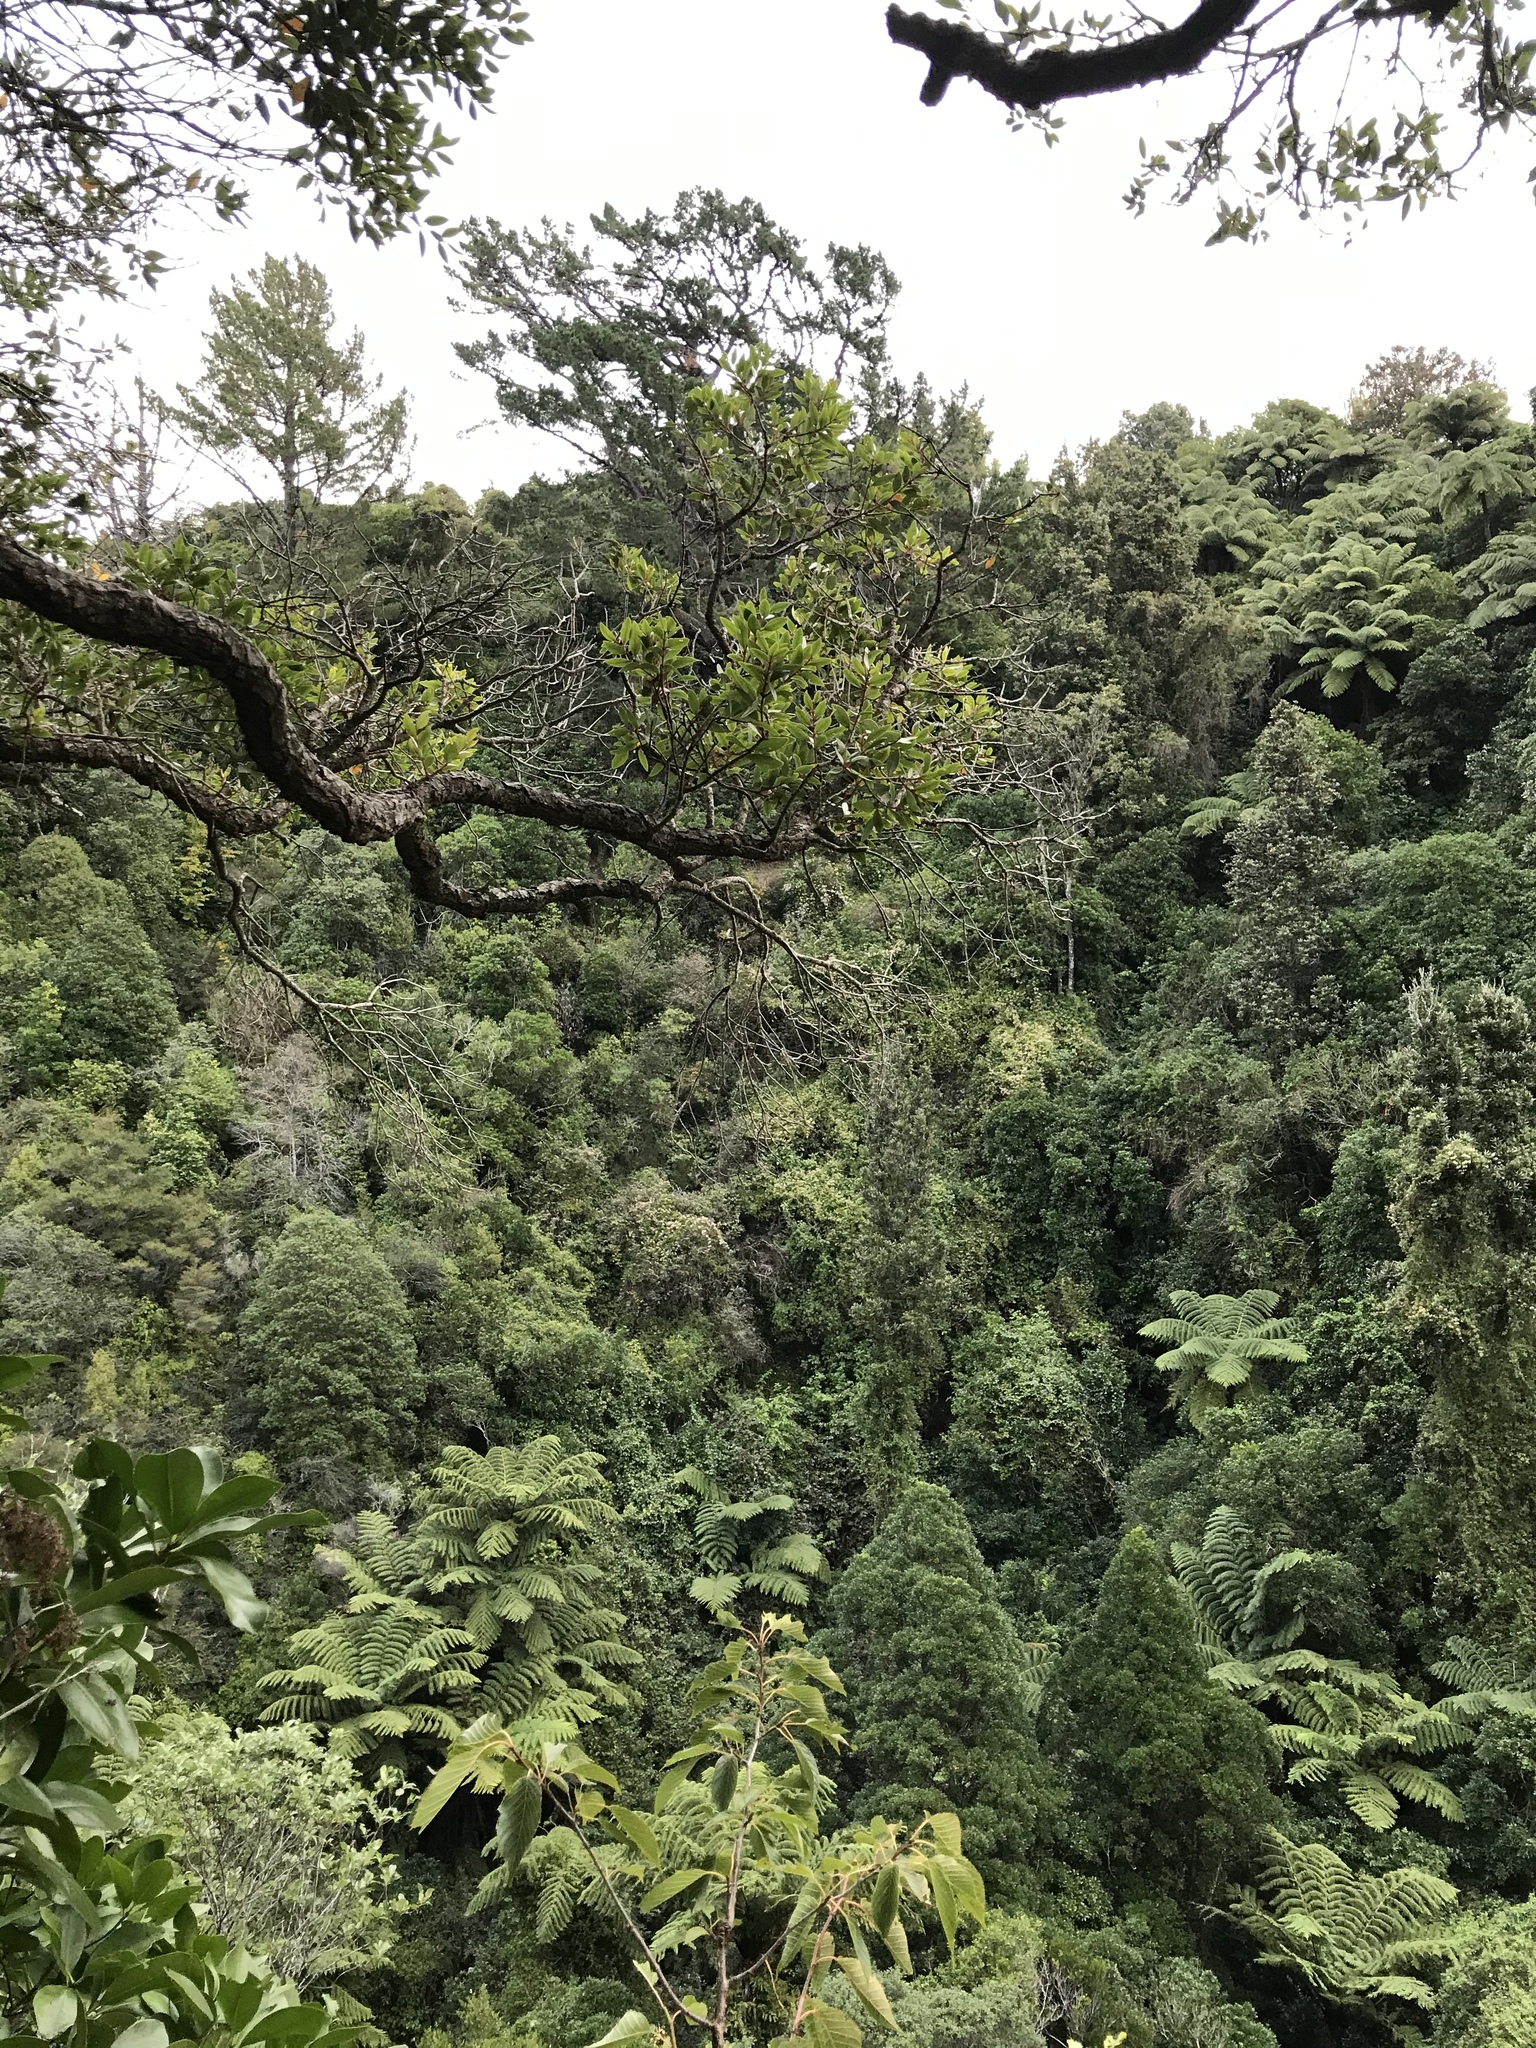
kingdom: Plantae
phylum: Tracheophyta
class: Magnoliopsida
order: Ranunculales
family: Ranunculaceae
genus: Clematis
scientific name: Clematis vitalba
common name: Evergreen clematis
